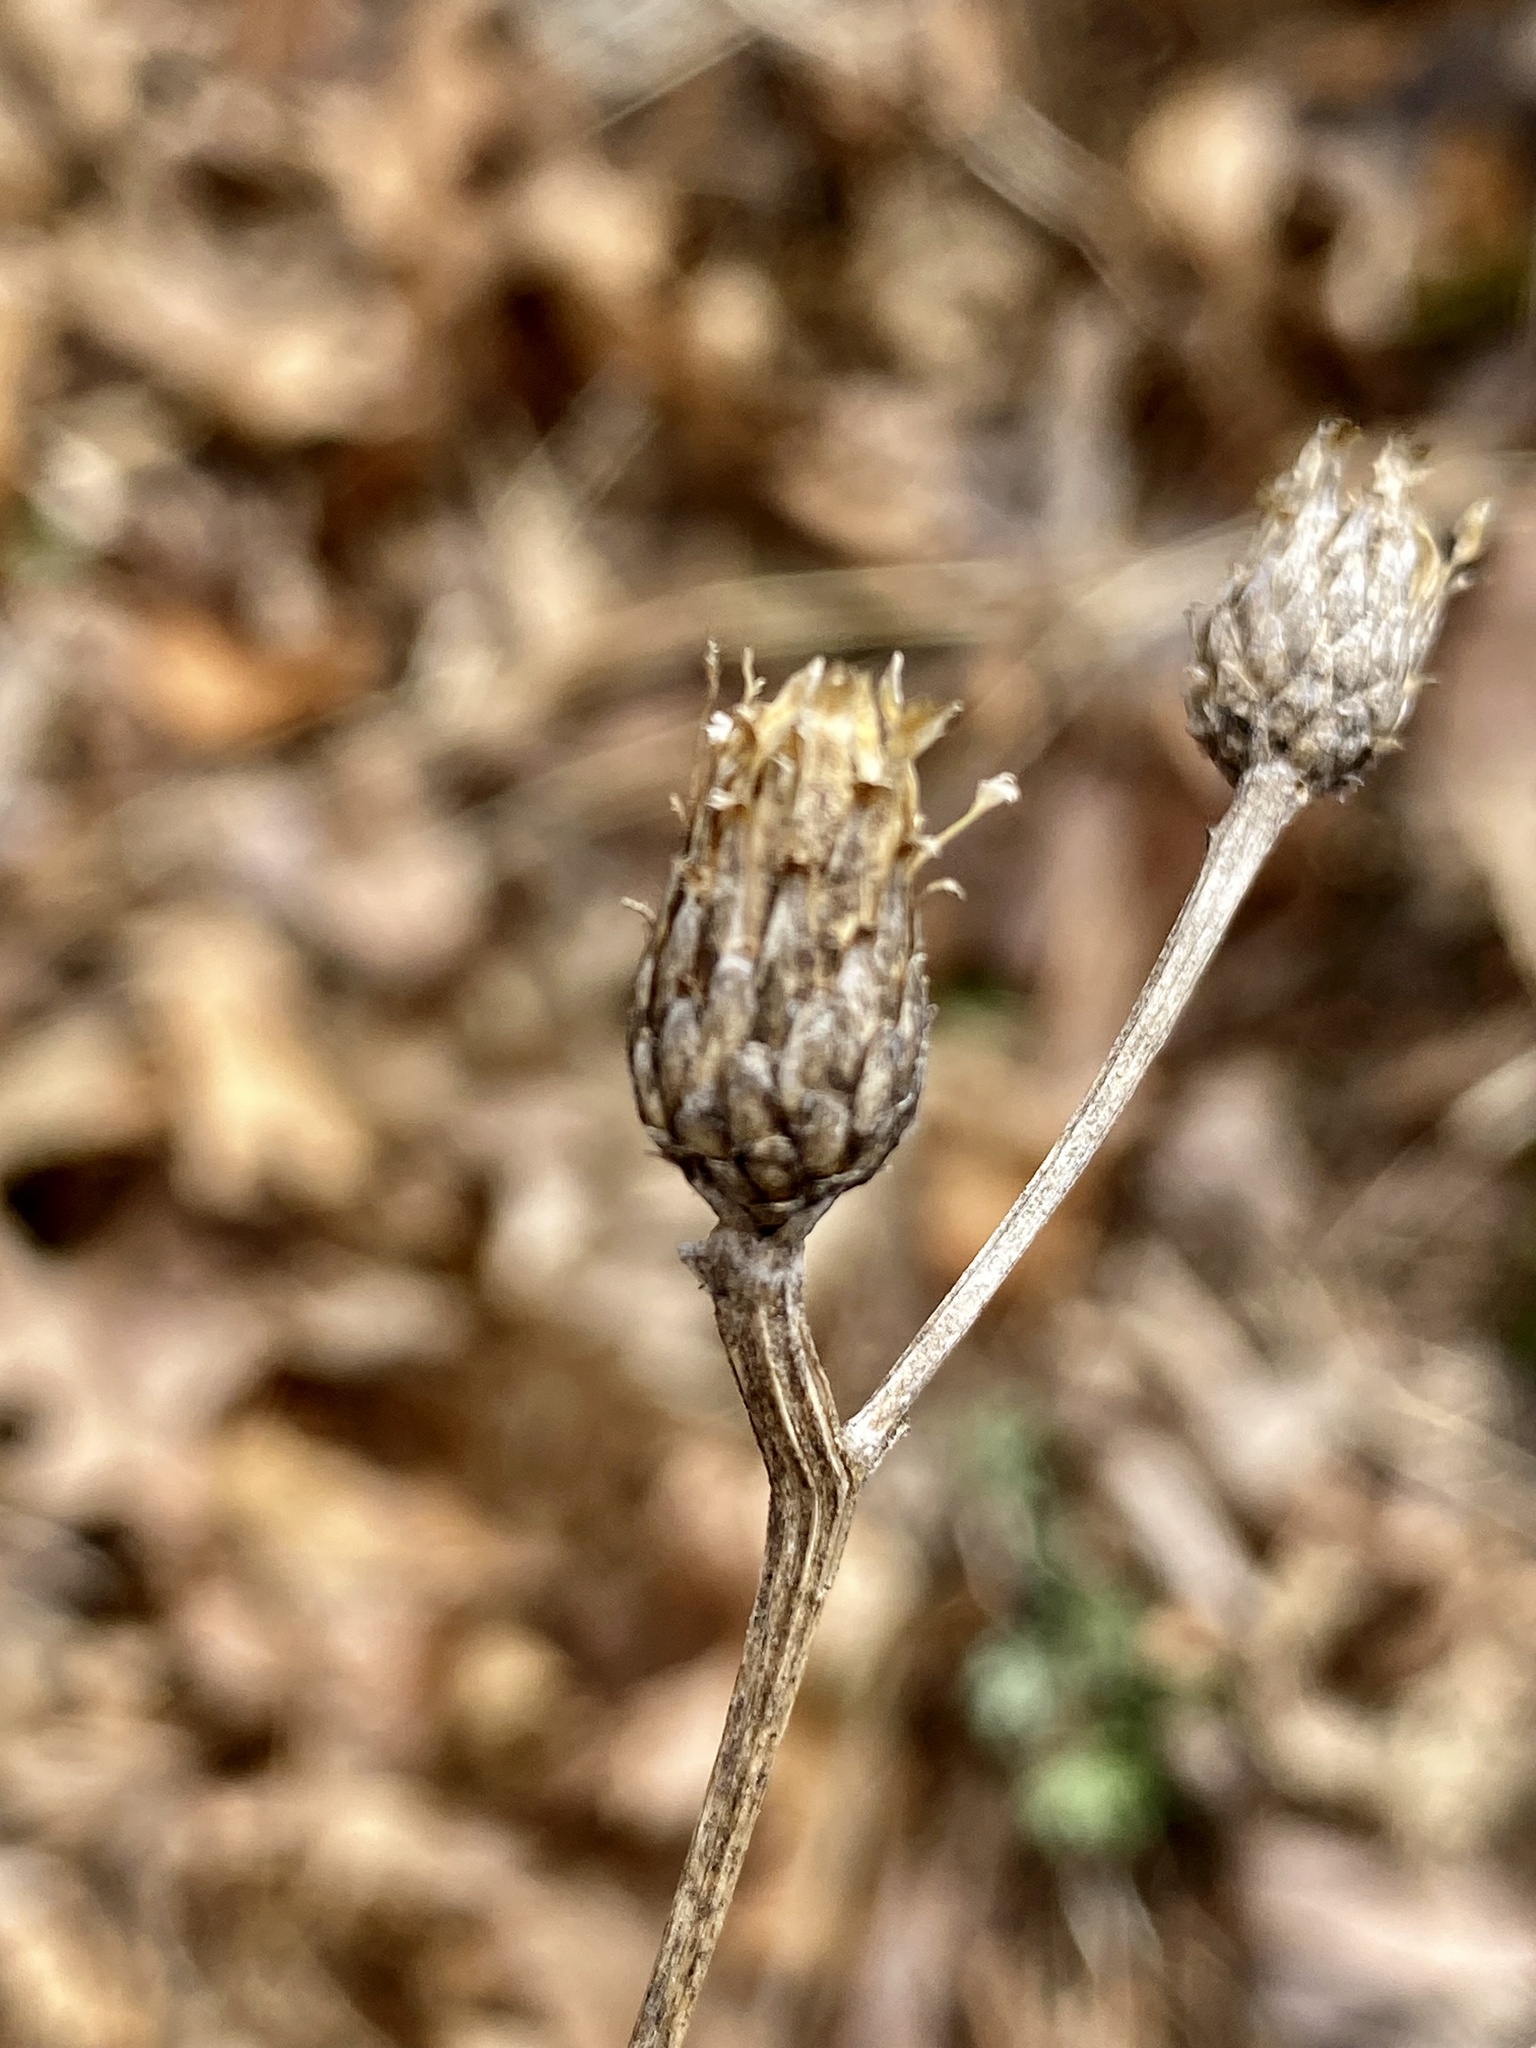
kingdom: Plantae
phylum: Tracheophyta
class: Magnoliopsida
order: Asterales
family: Asteraceae
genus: Centaurea
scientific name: Centaurea nigrescens
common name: Tyrol knapweed
